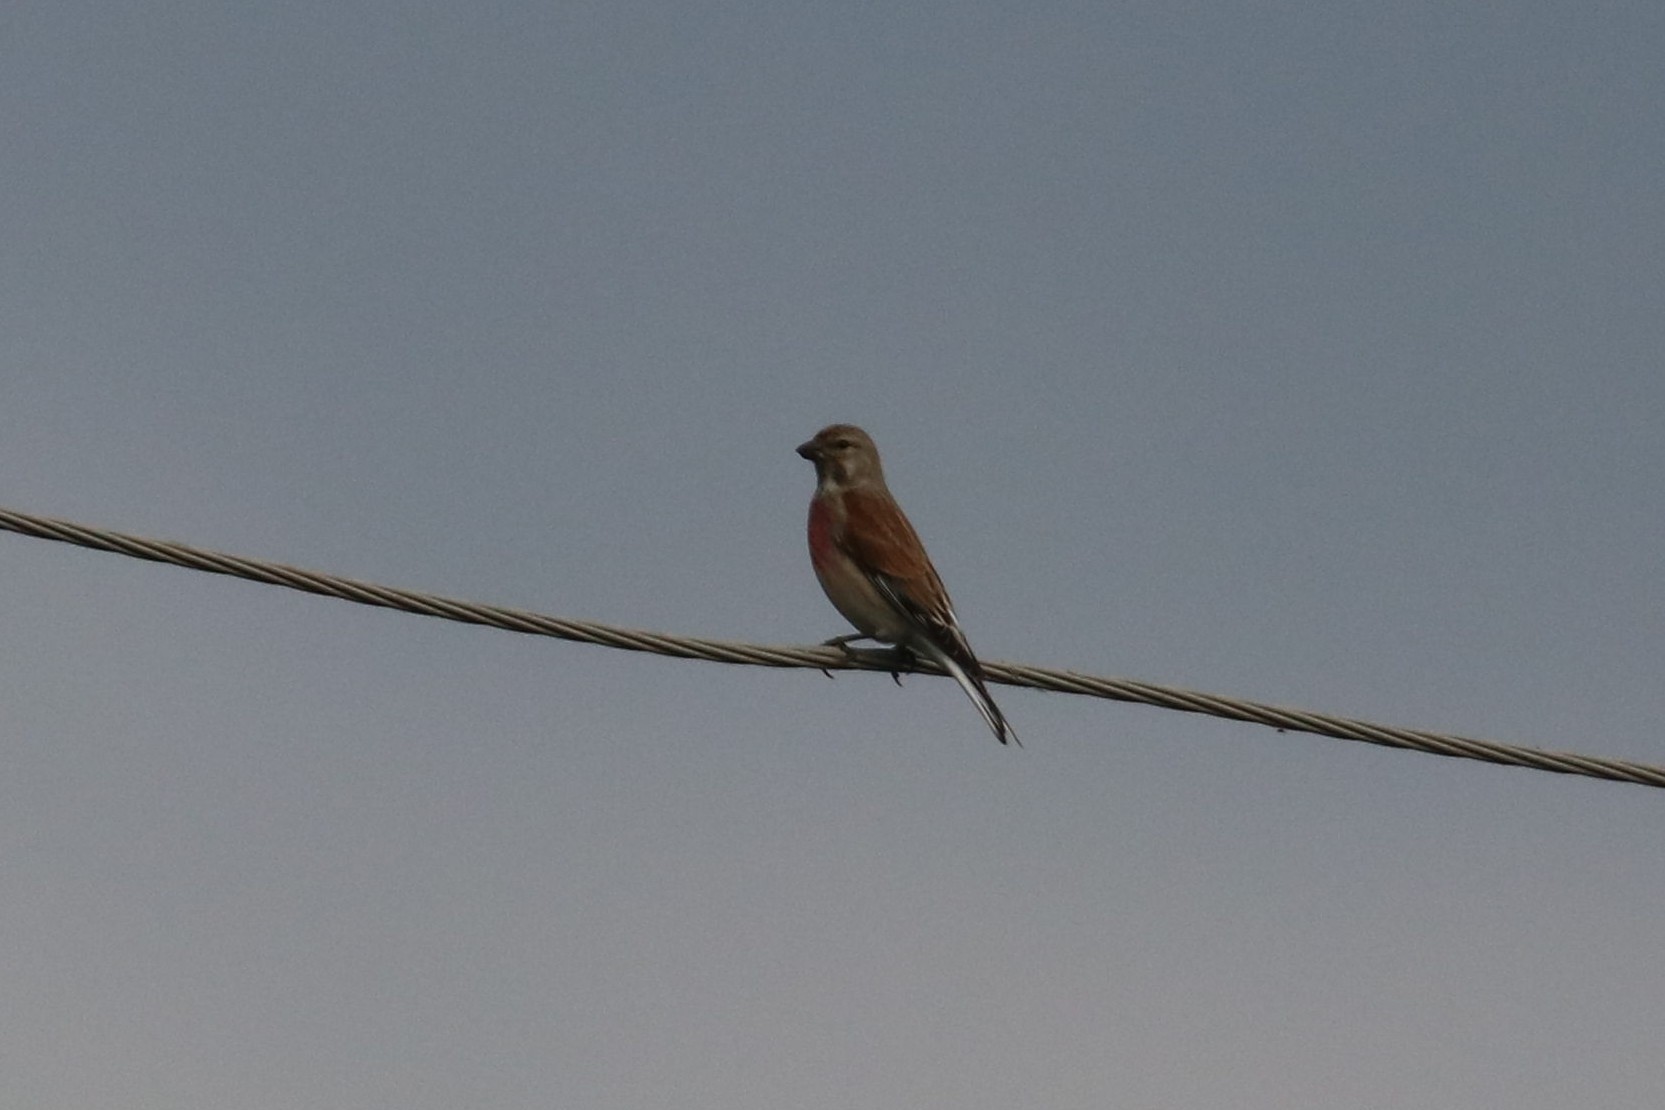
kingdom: Animalia
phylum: Chordata
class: Aves
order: Passeriformes
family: Fringillidae
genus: Linaria
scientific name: Linaria cannabina
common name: Common linnet
